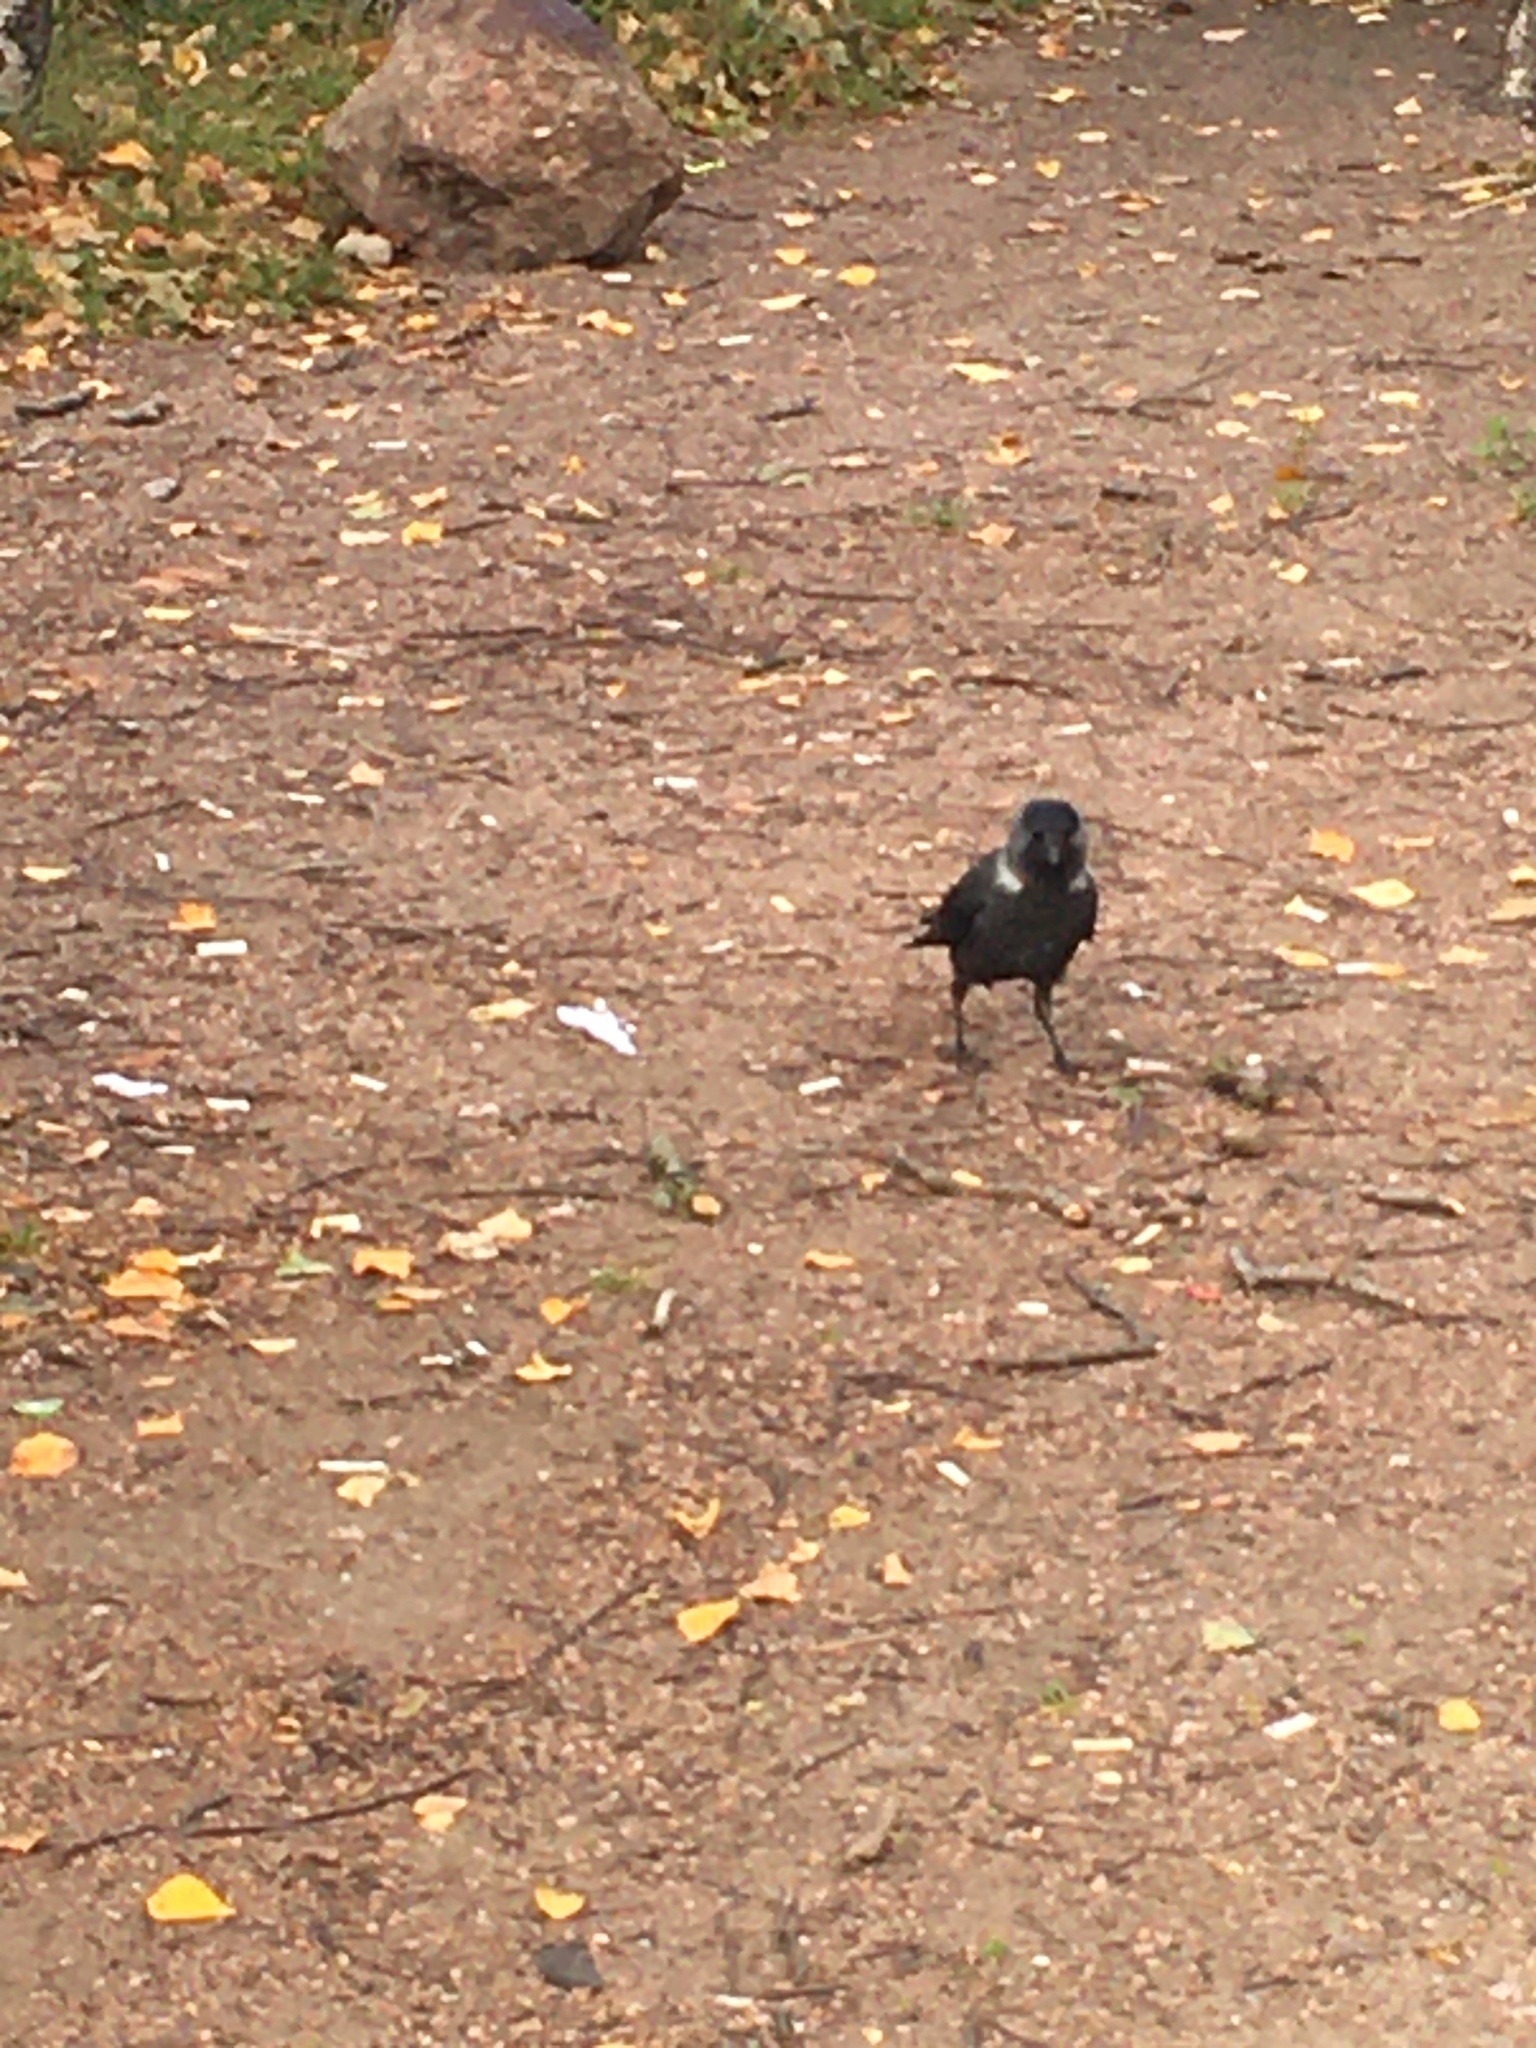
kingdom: Animalia
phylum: Chordata
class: Aves
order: Passeriformes
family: Corvidae
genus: Coloeus
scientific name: Coloeus monedula
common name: Western jackdaw
